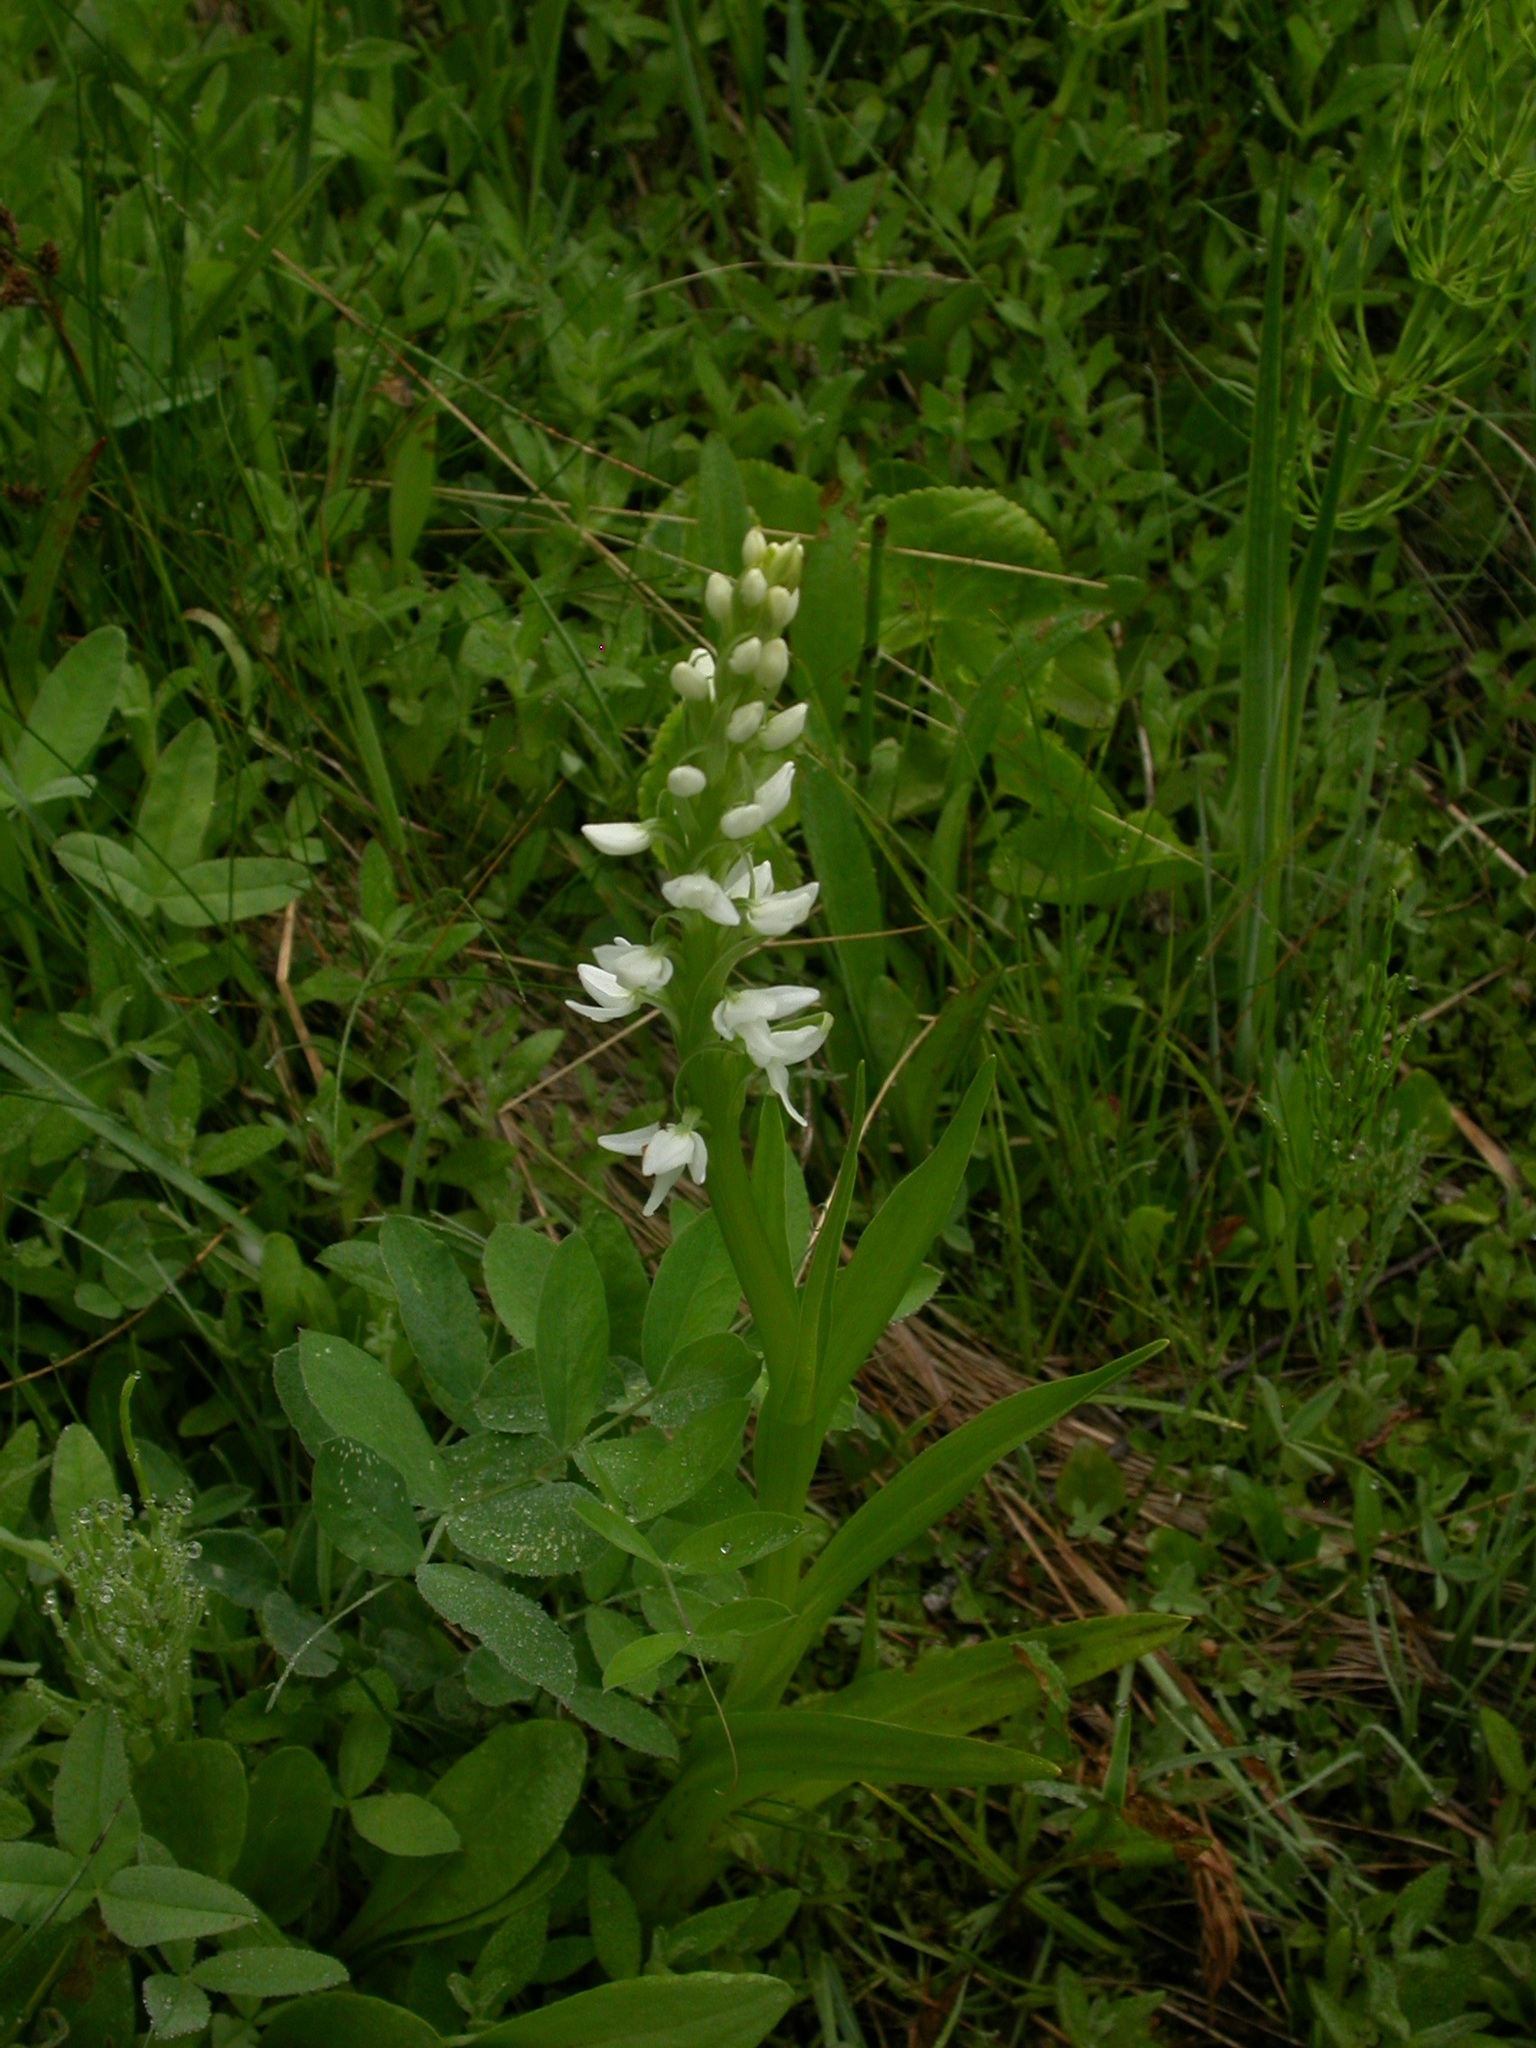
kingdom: Plantae
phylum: Tracheophyta
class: Liliopsida
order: Asparagales
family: Orchidaceae
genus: Platanthera
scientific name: Platanthera dilatata
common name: Bog candles
